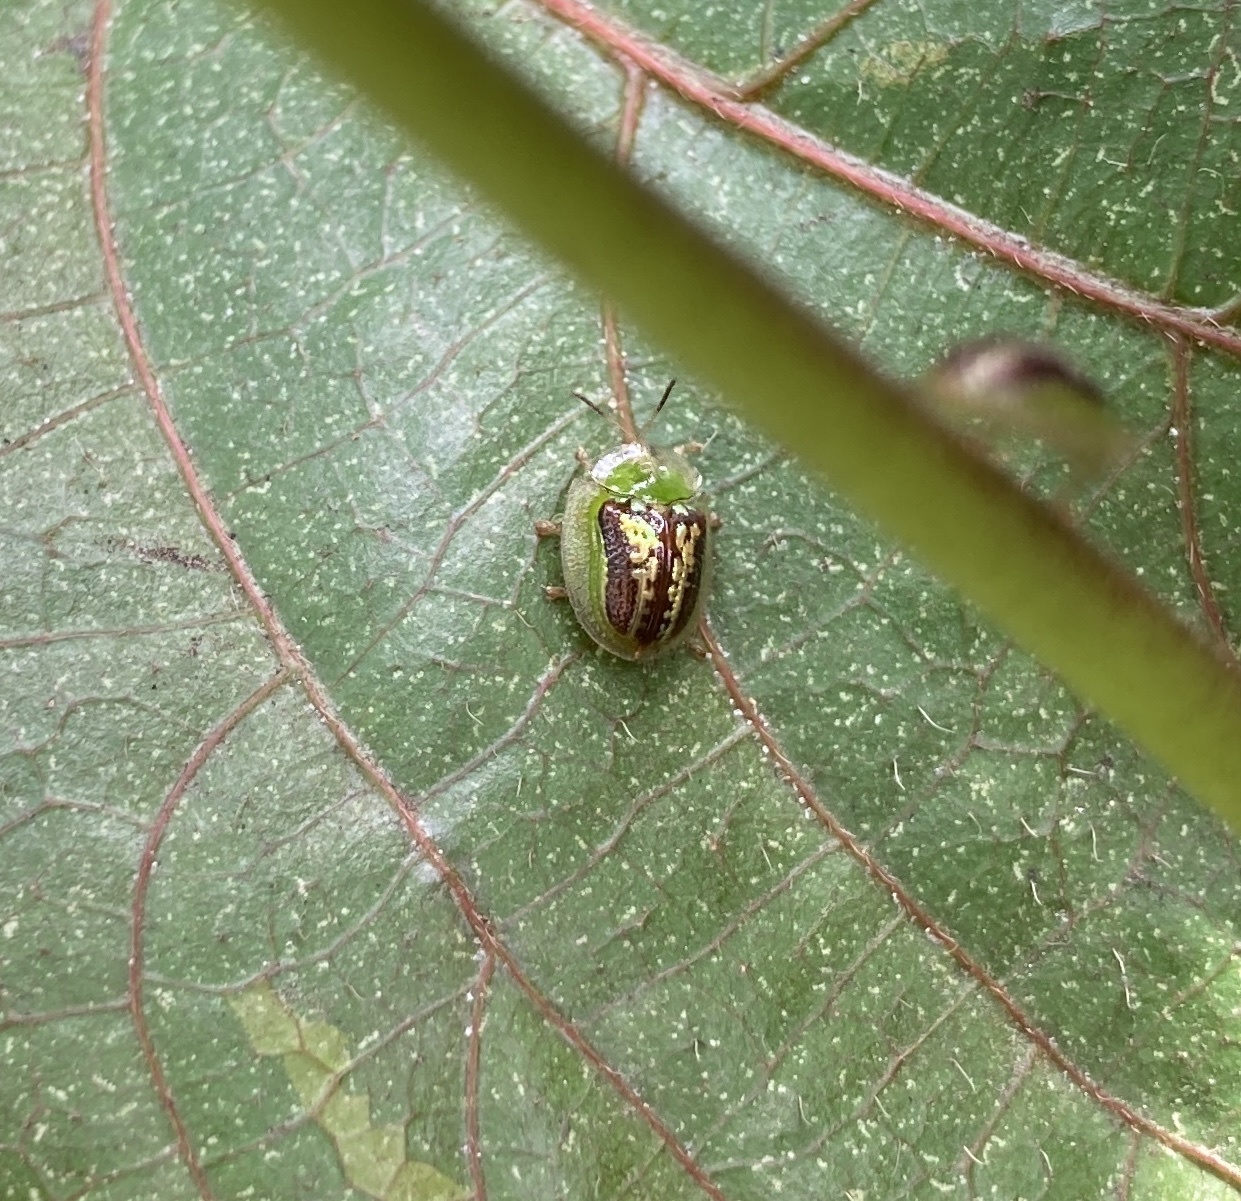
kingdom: Animalia
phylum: Arthropoda
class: Insecta
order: Coleoptera
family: Chrysomelidae
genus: Cassida
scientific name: Cassida compuncta
